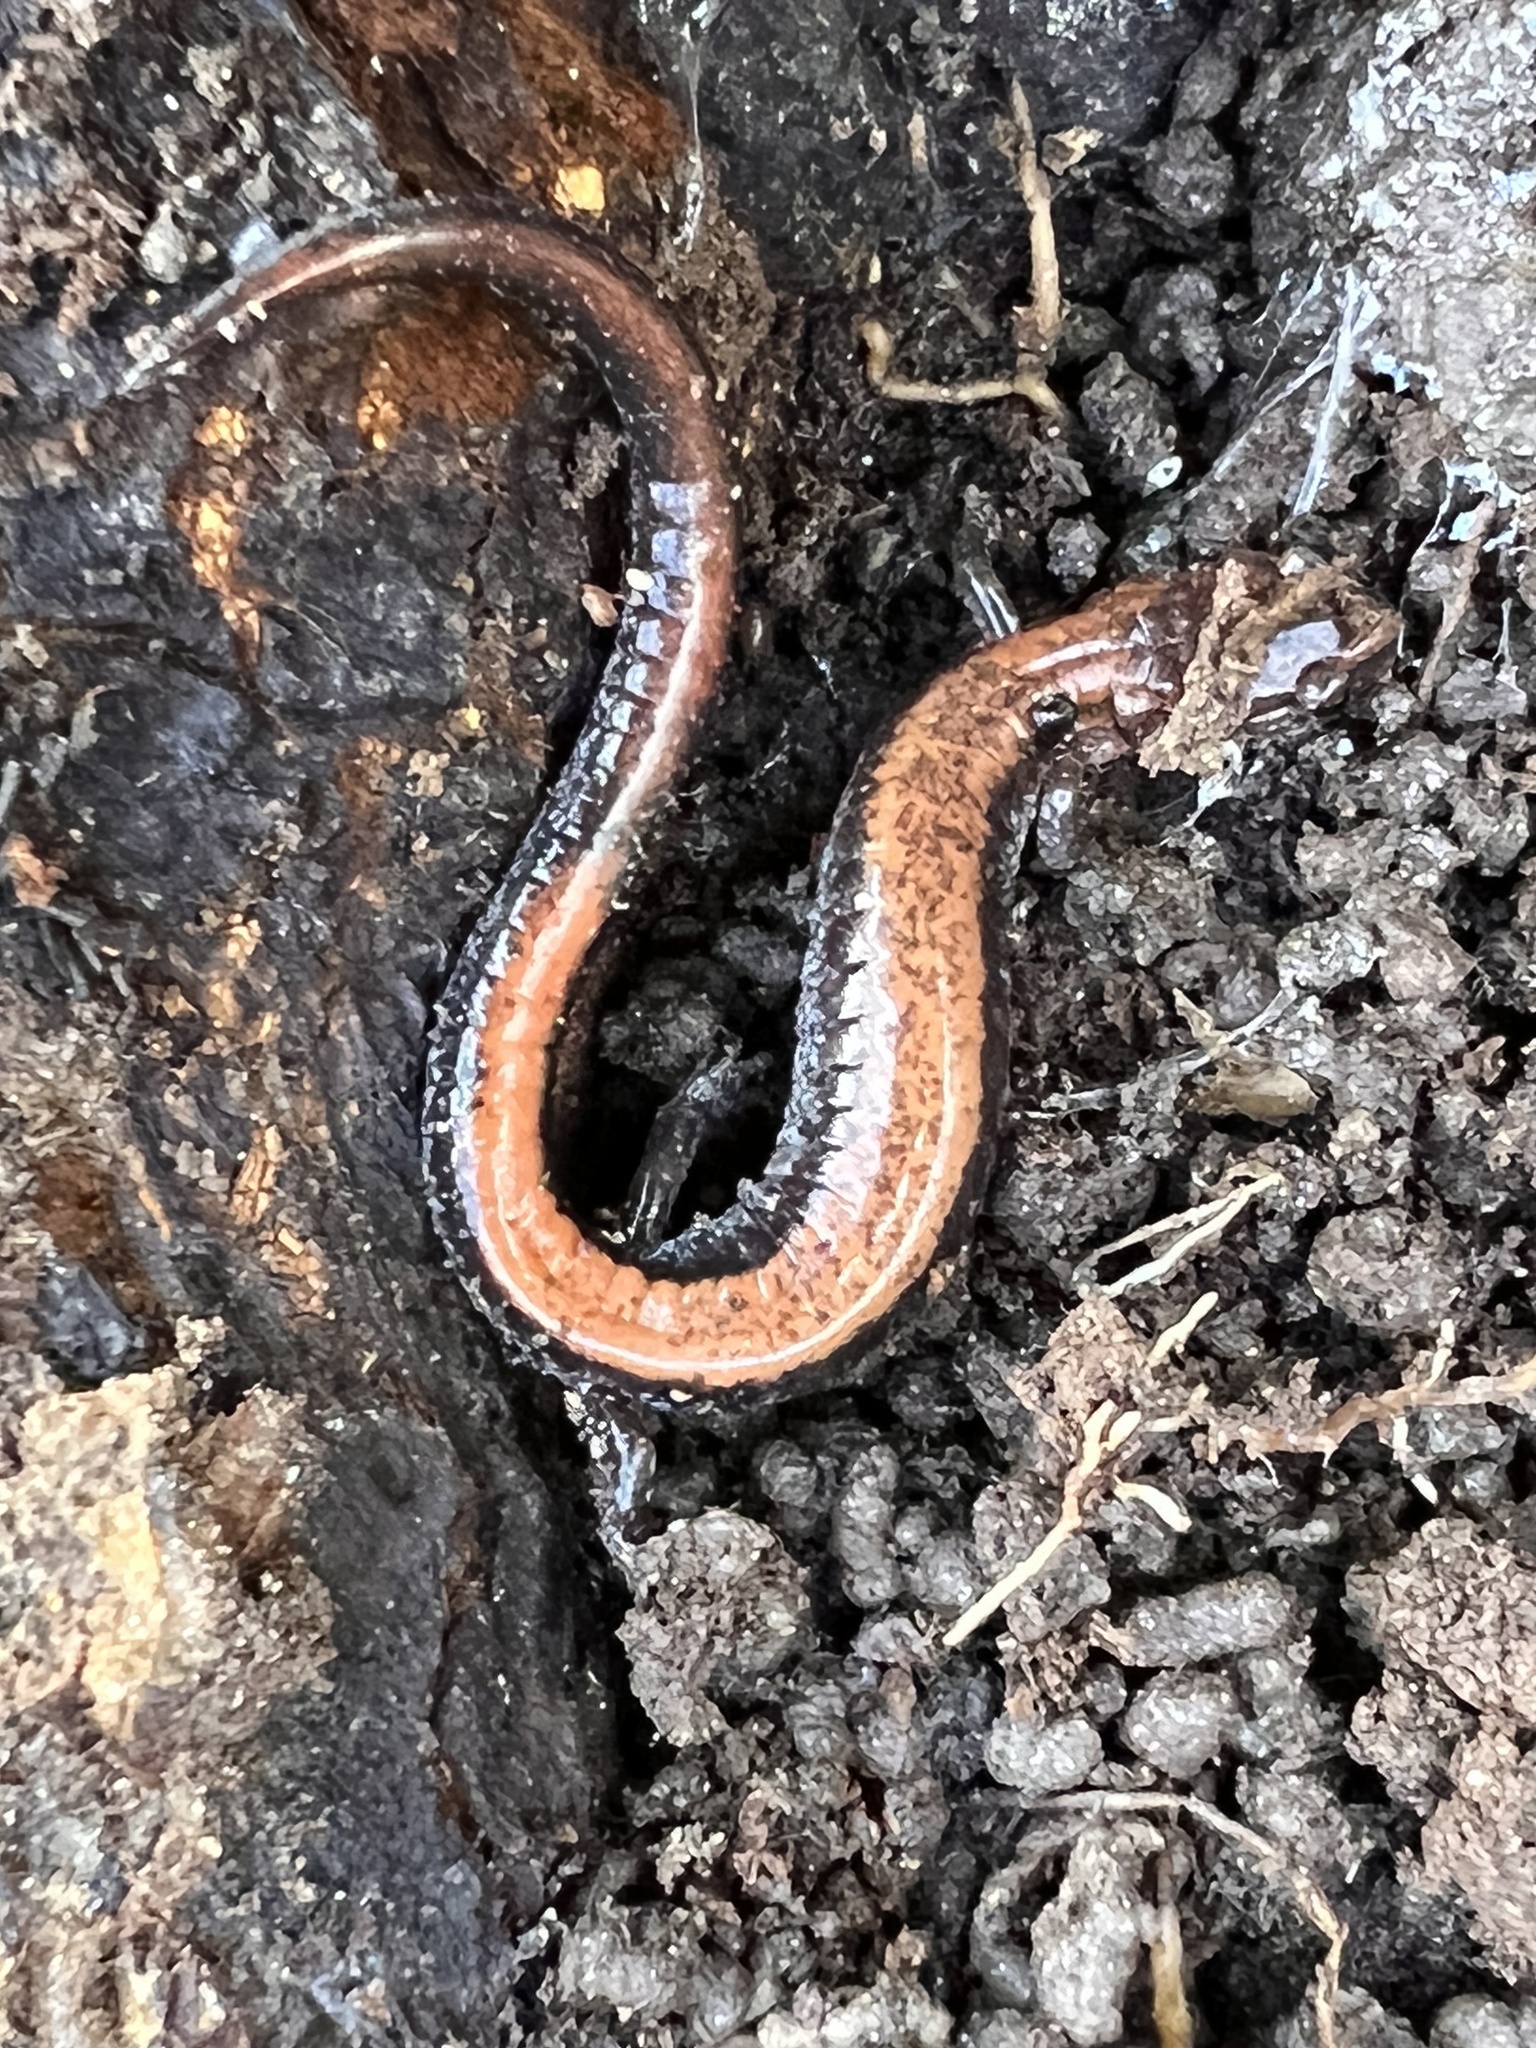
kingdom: Animalia
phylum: Chordata
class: Amphibia
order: Caudata
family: Plethodontidae
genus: Plethodon
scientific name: Plethodon cinereus
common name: Redback salamander
